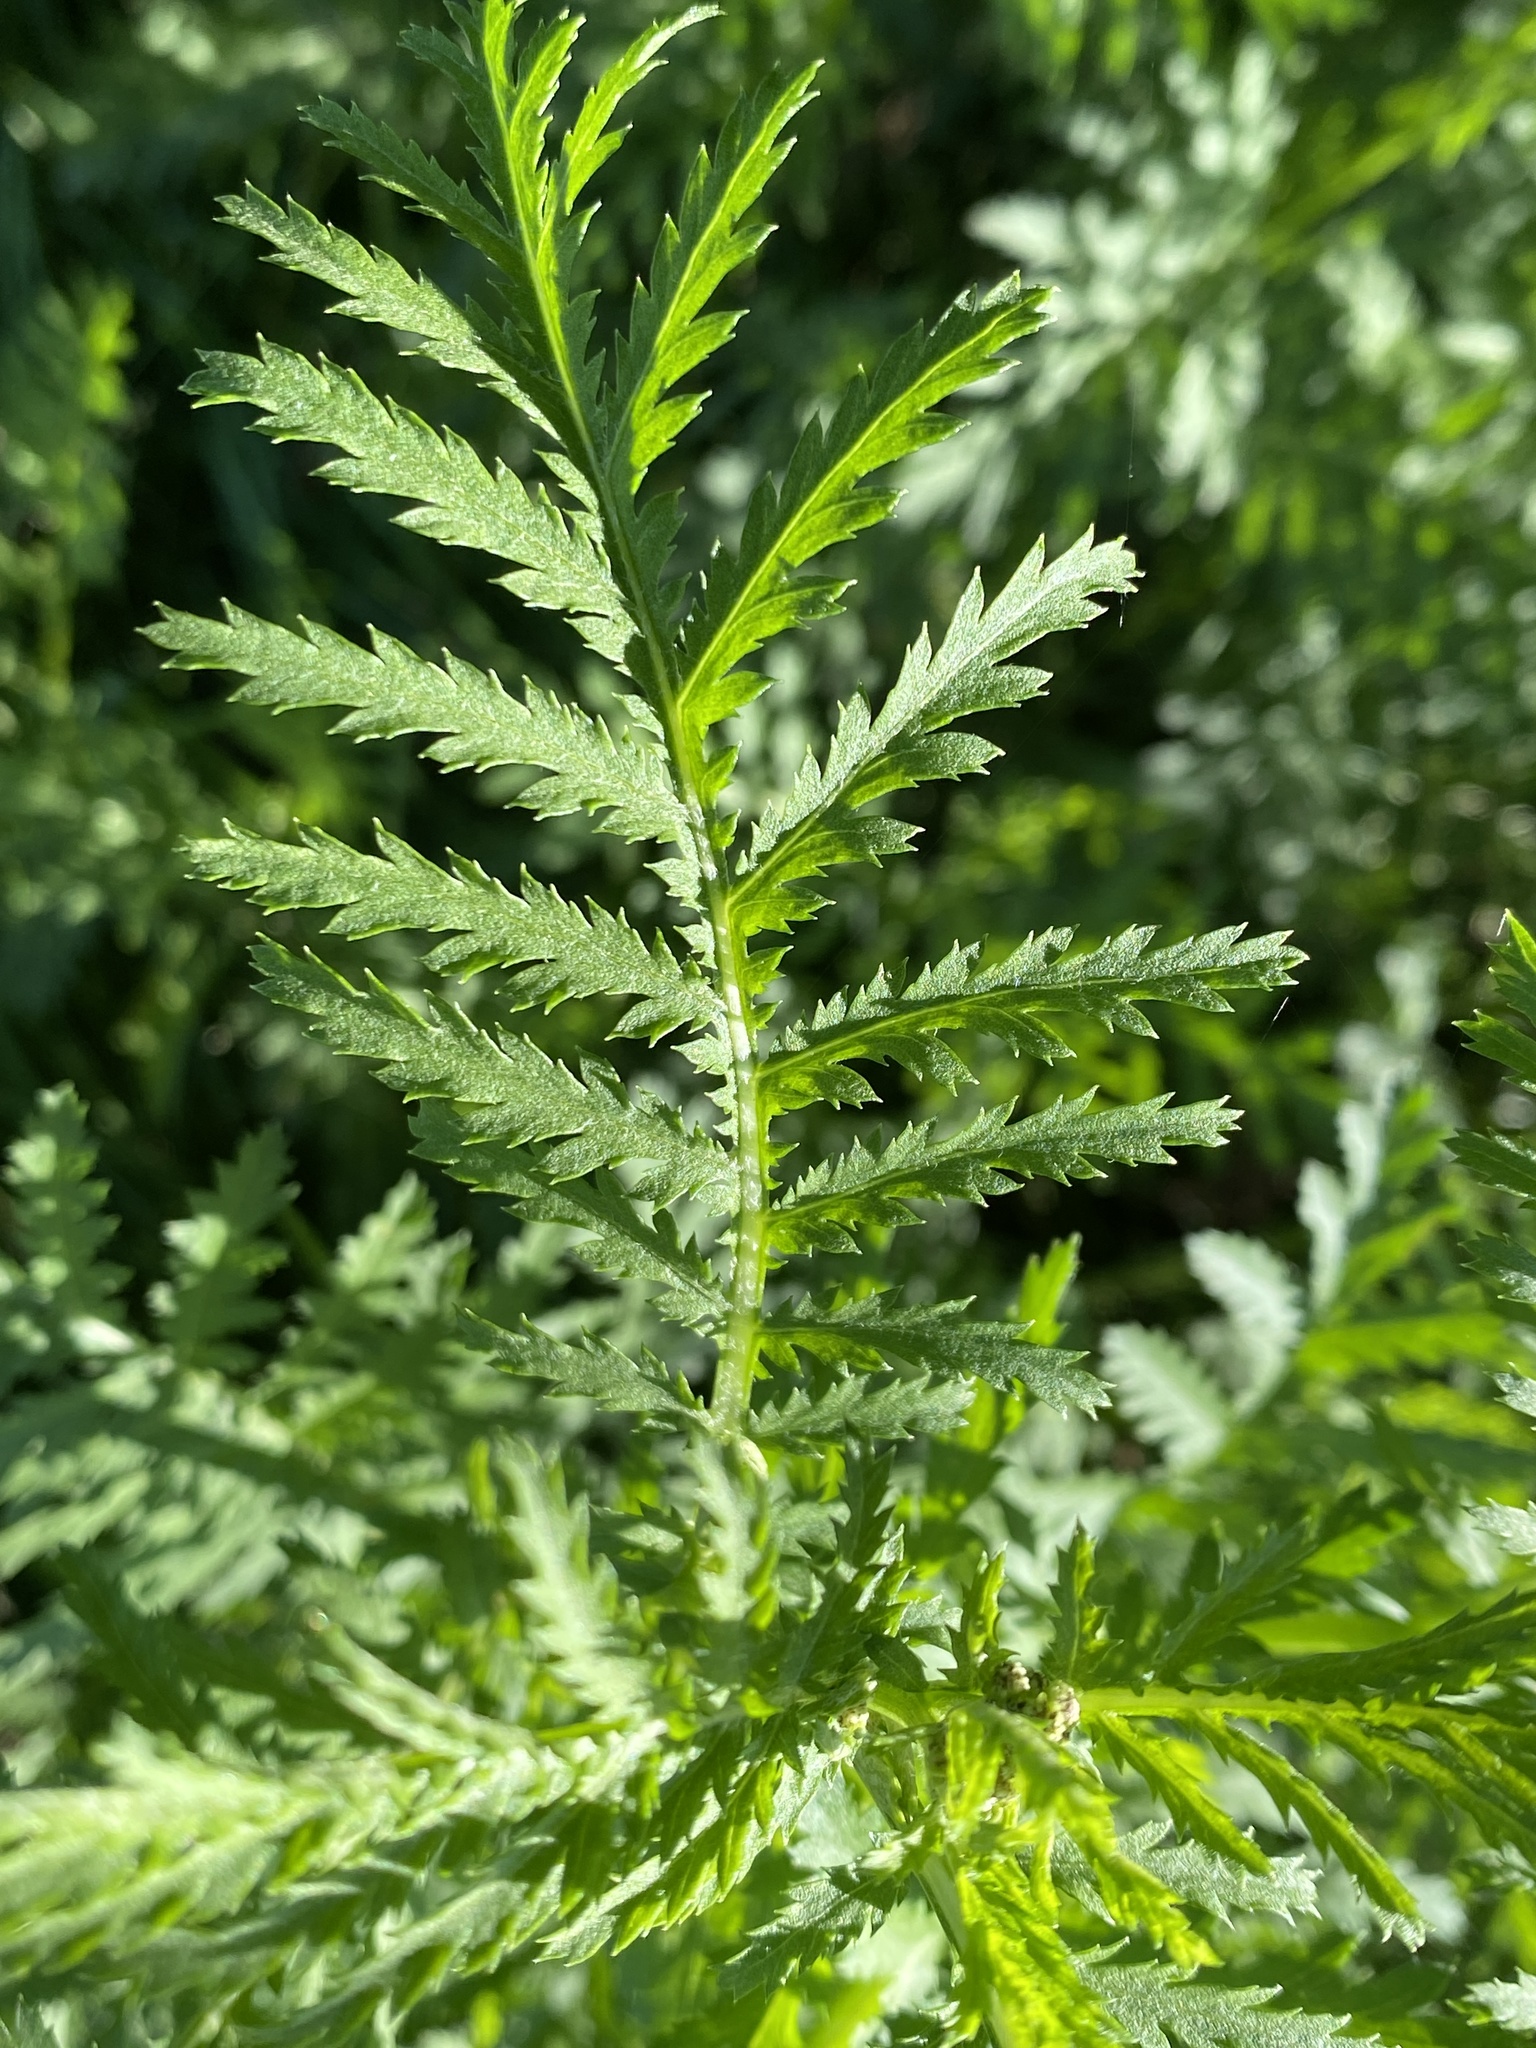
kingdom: Plantae
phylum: Tracheophyta
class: Magnoliopsida
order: Asterales
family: Asteraceae
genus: Tanacetum
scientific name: Tanacetum vulgare
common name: Common tansy
